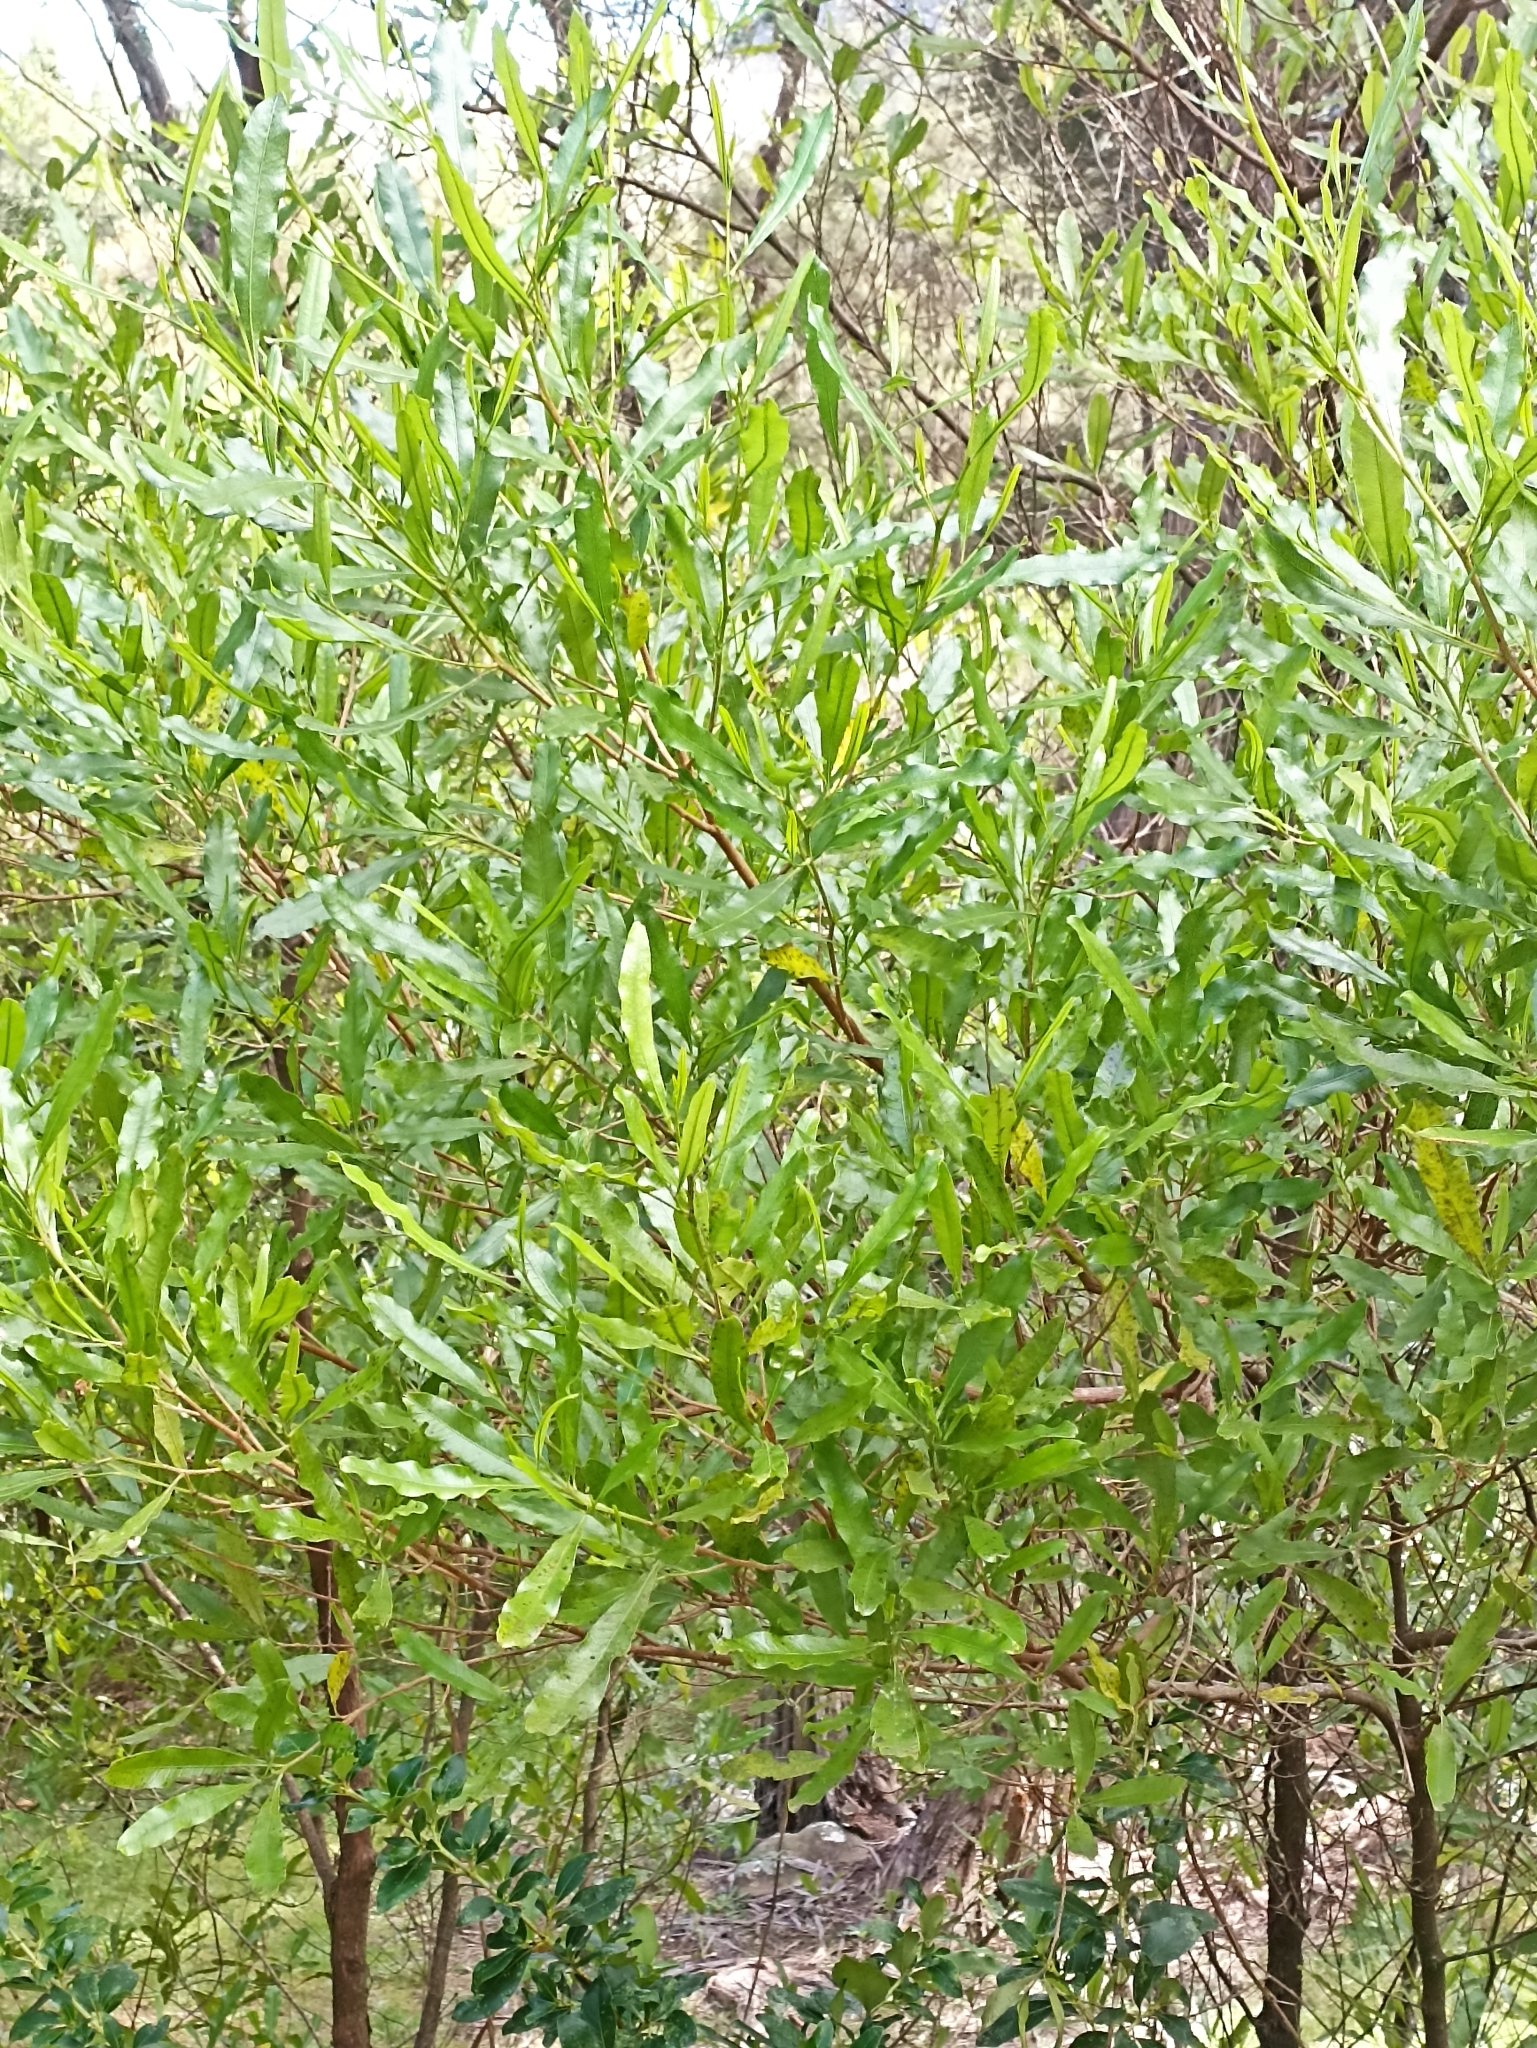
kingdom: Plantae
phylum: Tracheophyta
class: Magnoliopsida
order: Sapindales
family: Sapindaceae
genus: Dodonaea
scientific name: Dodonaea viscosa
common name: Hopbush
